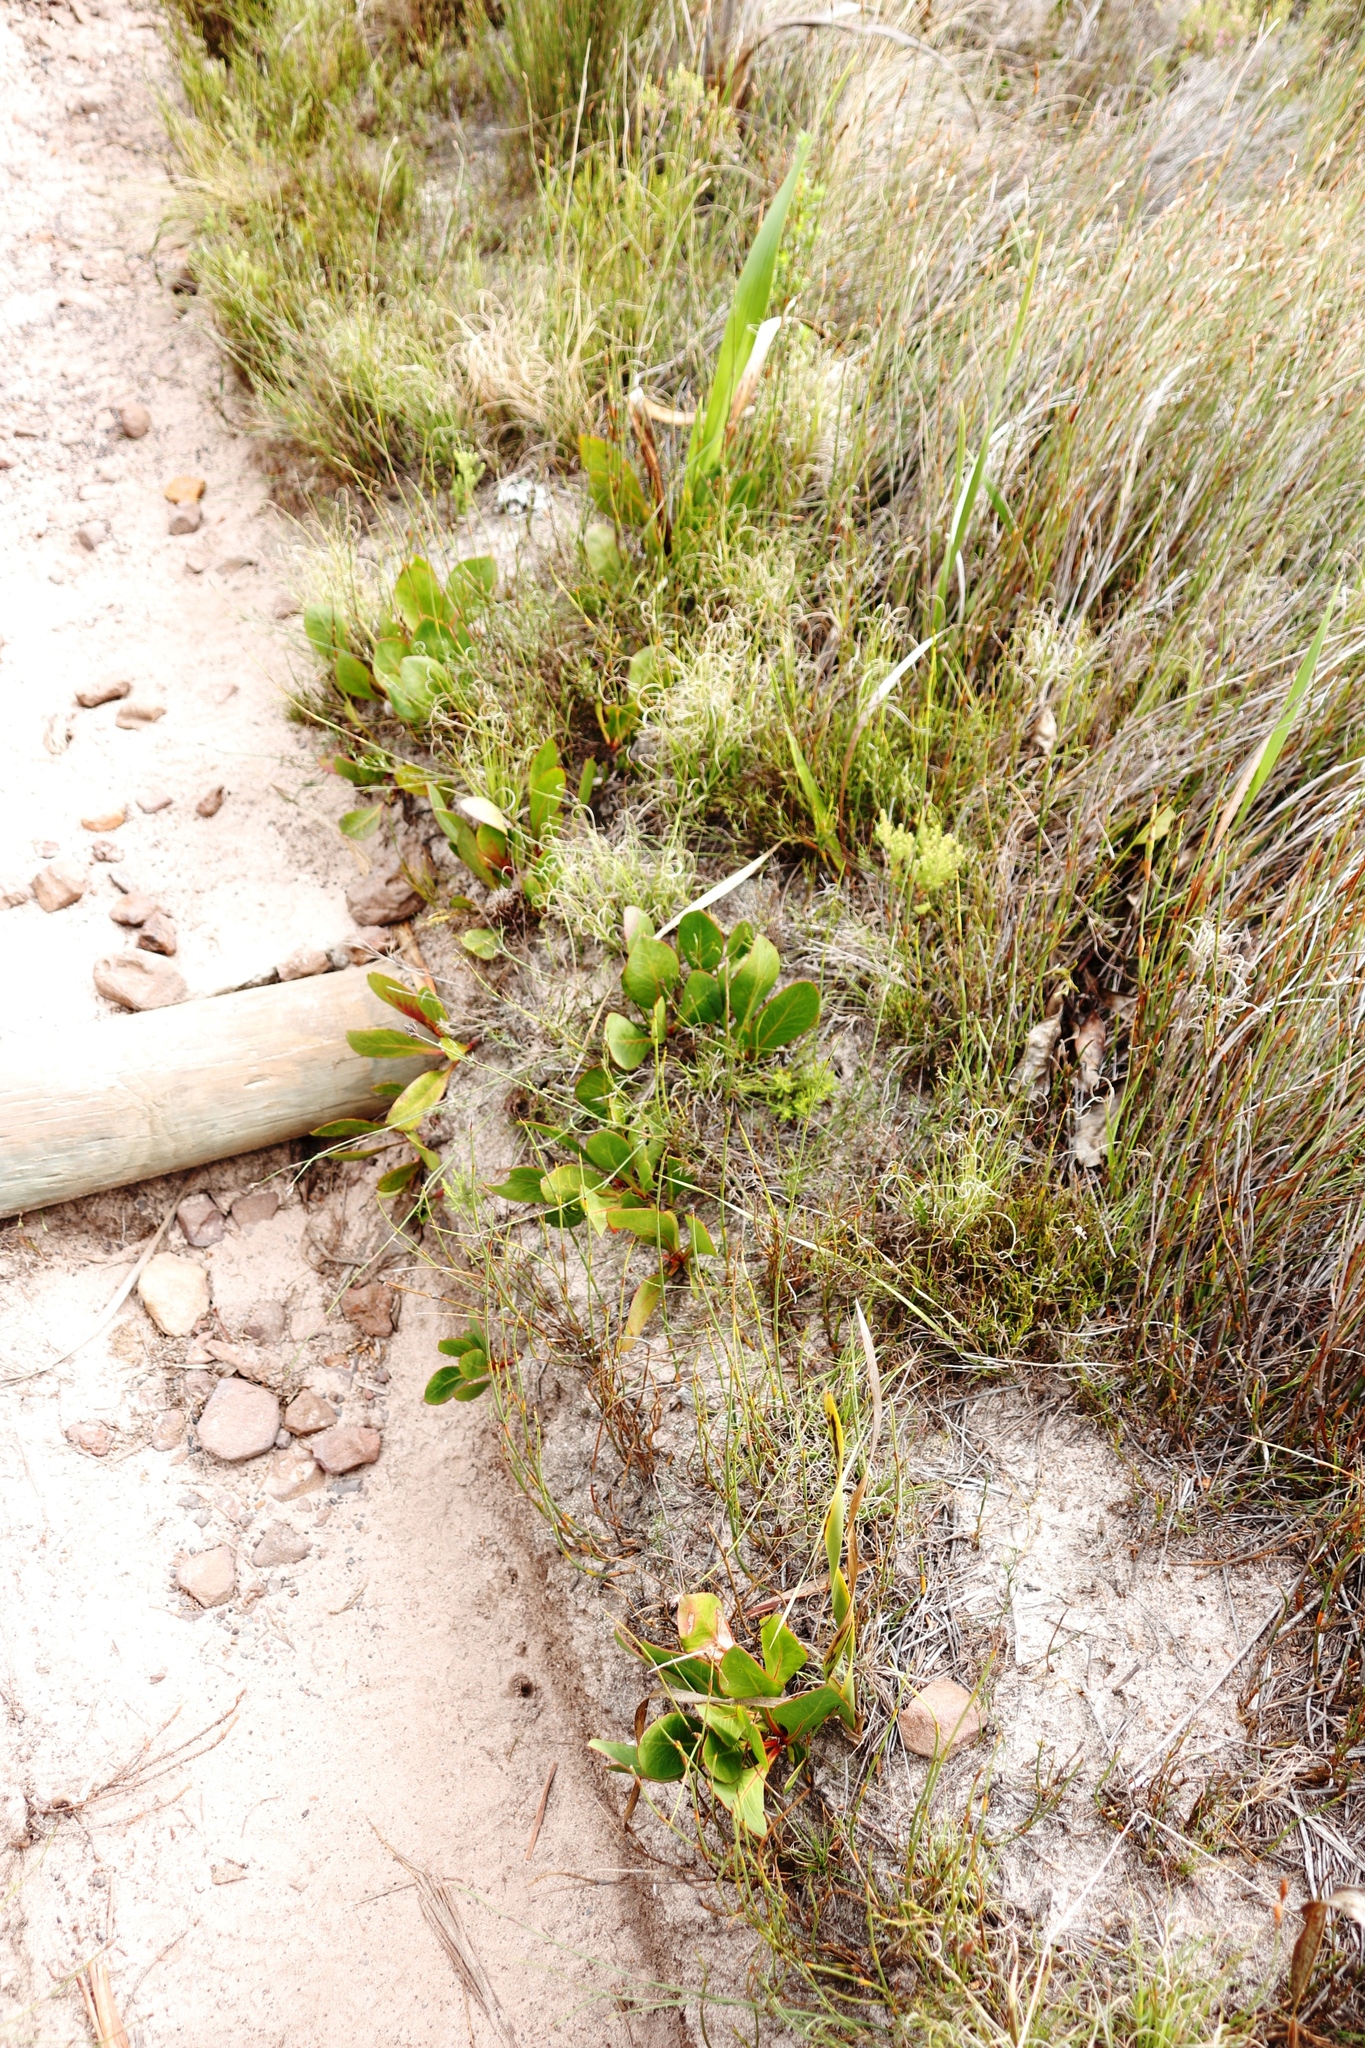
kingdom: Plantae
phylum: Tracheophyta
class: Magnoliopsida
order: Proteales
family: Proteaceae
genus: Protea
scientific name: Protea acaulos
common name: Common ground sugarbush
